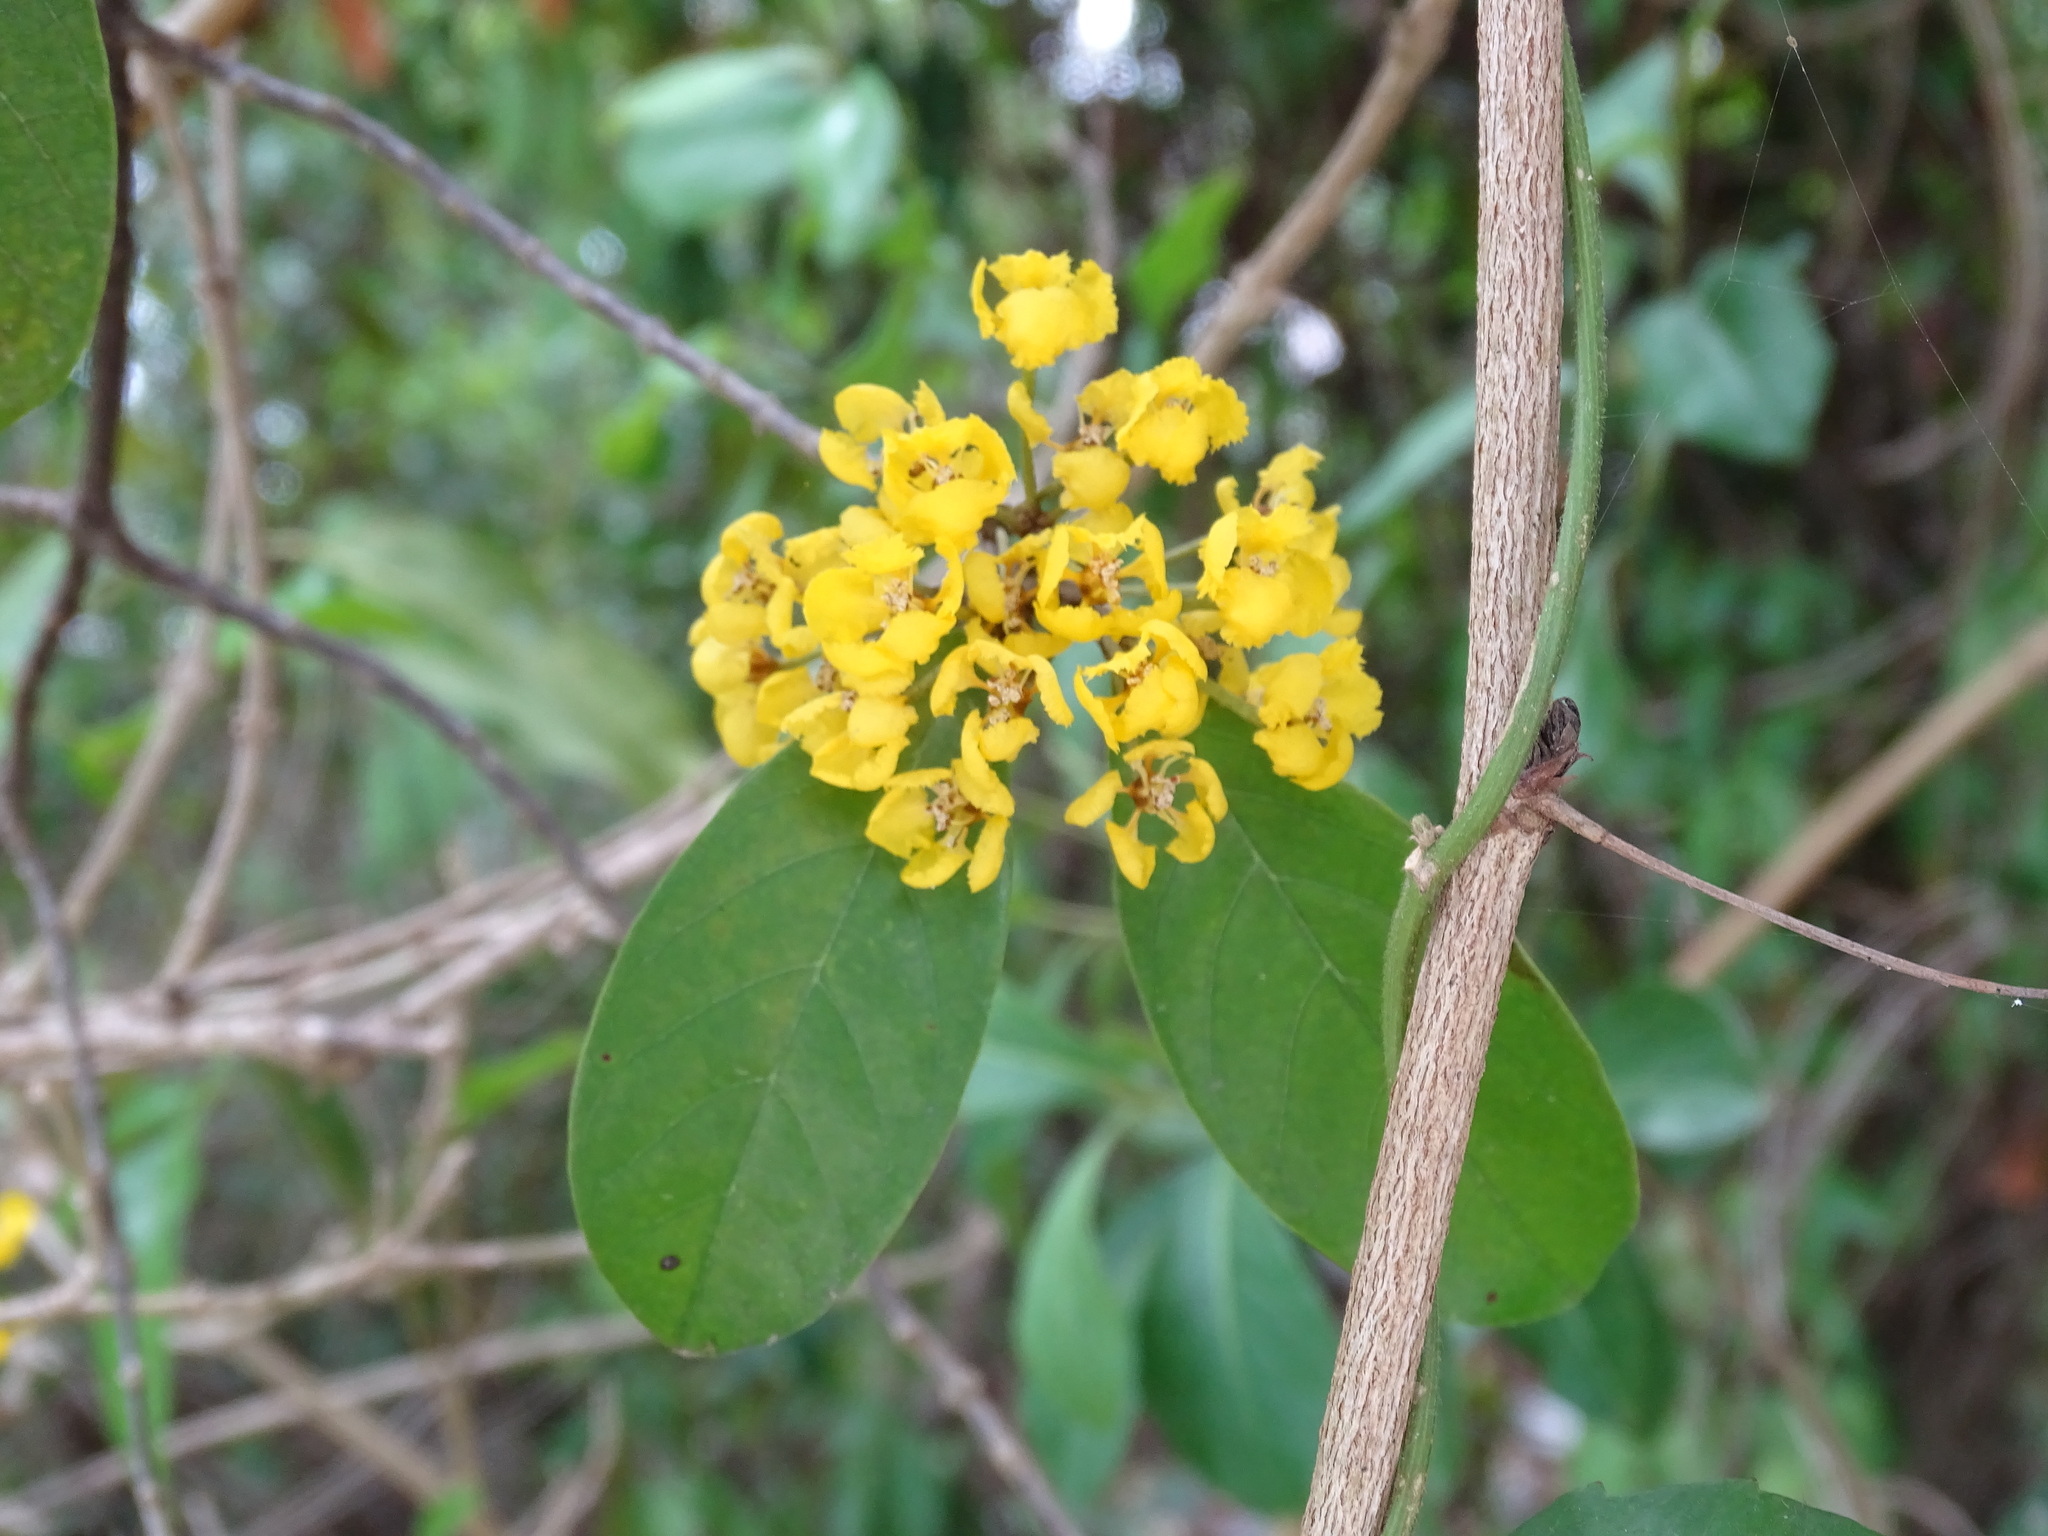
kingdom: Plantae
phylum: Tracheophyta
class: Magnoliopsida
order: Malpighiales
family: Malpighiaceae
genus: Hiraea
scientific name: Hiraea reclinata
